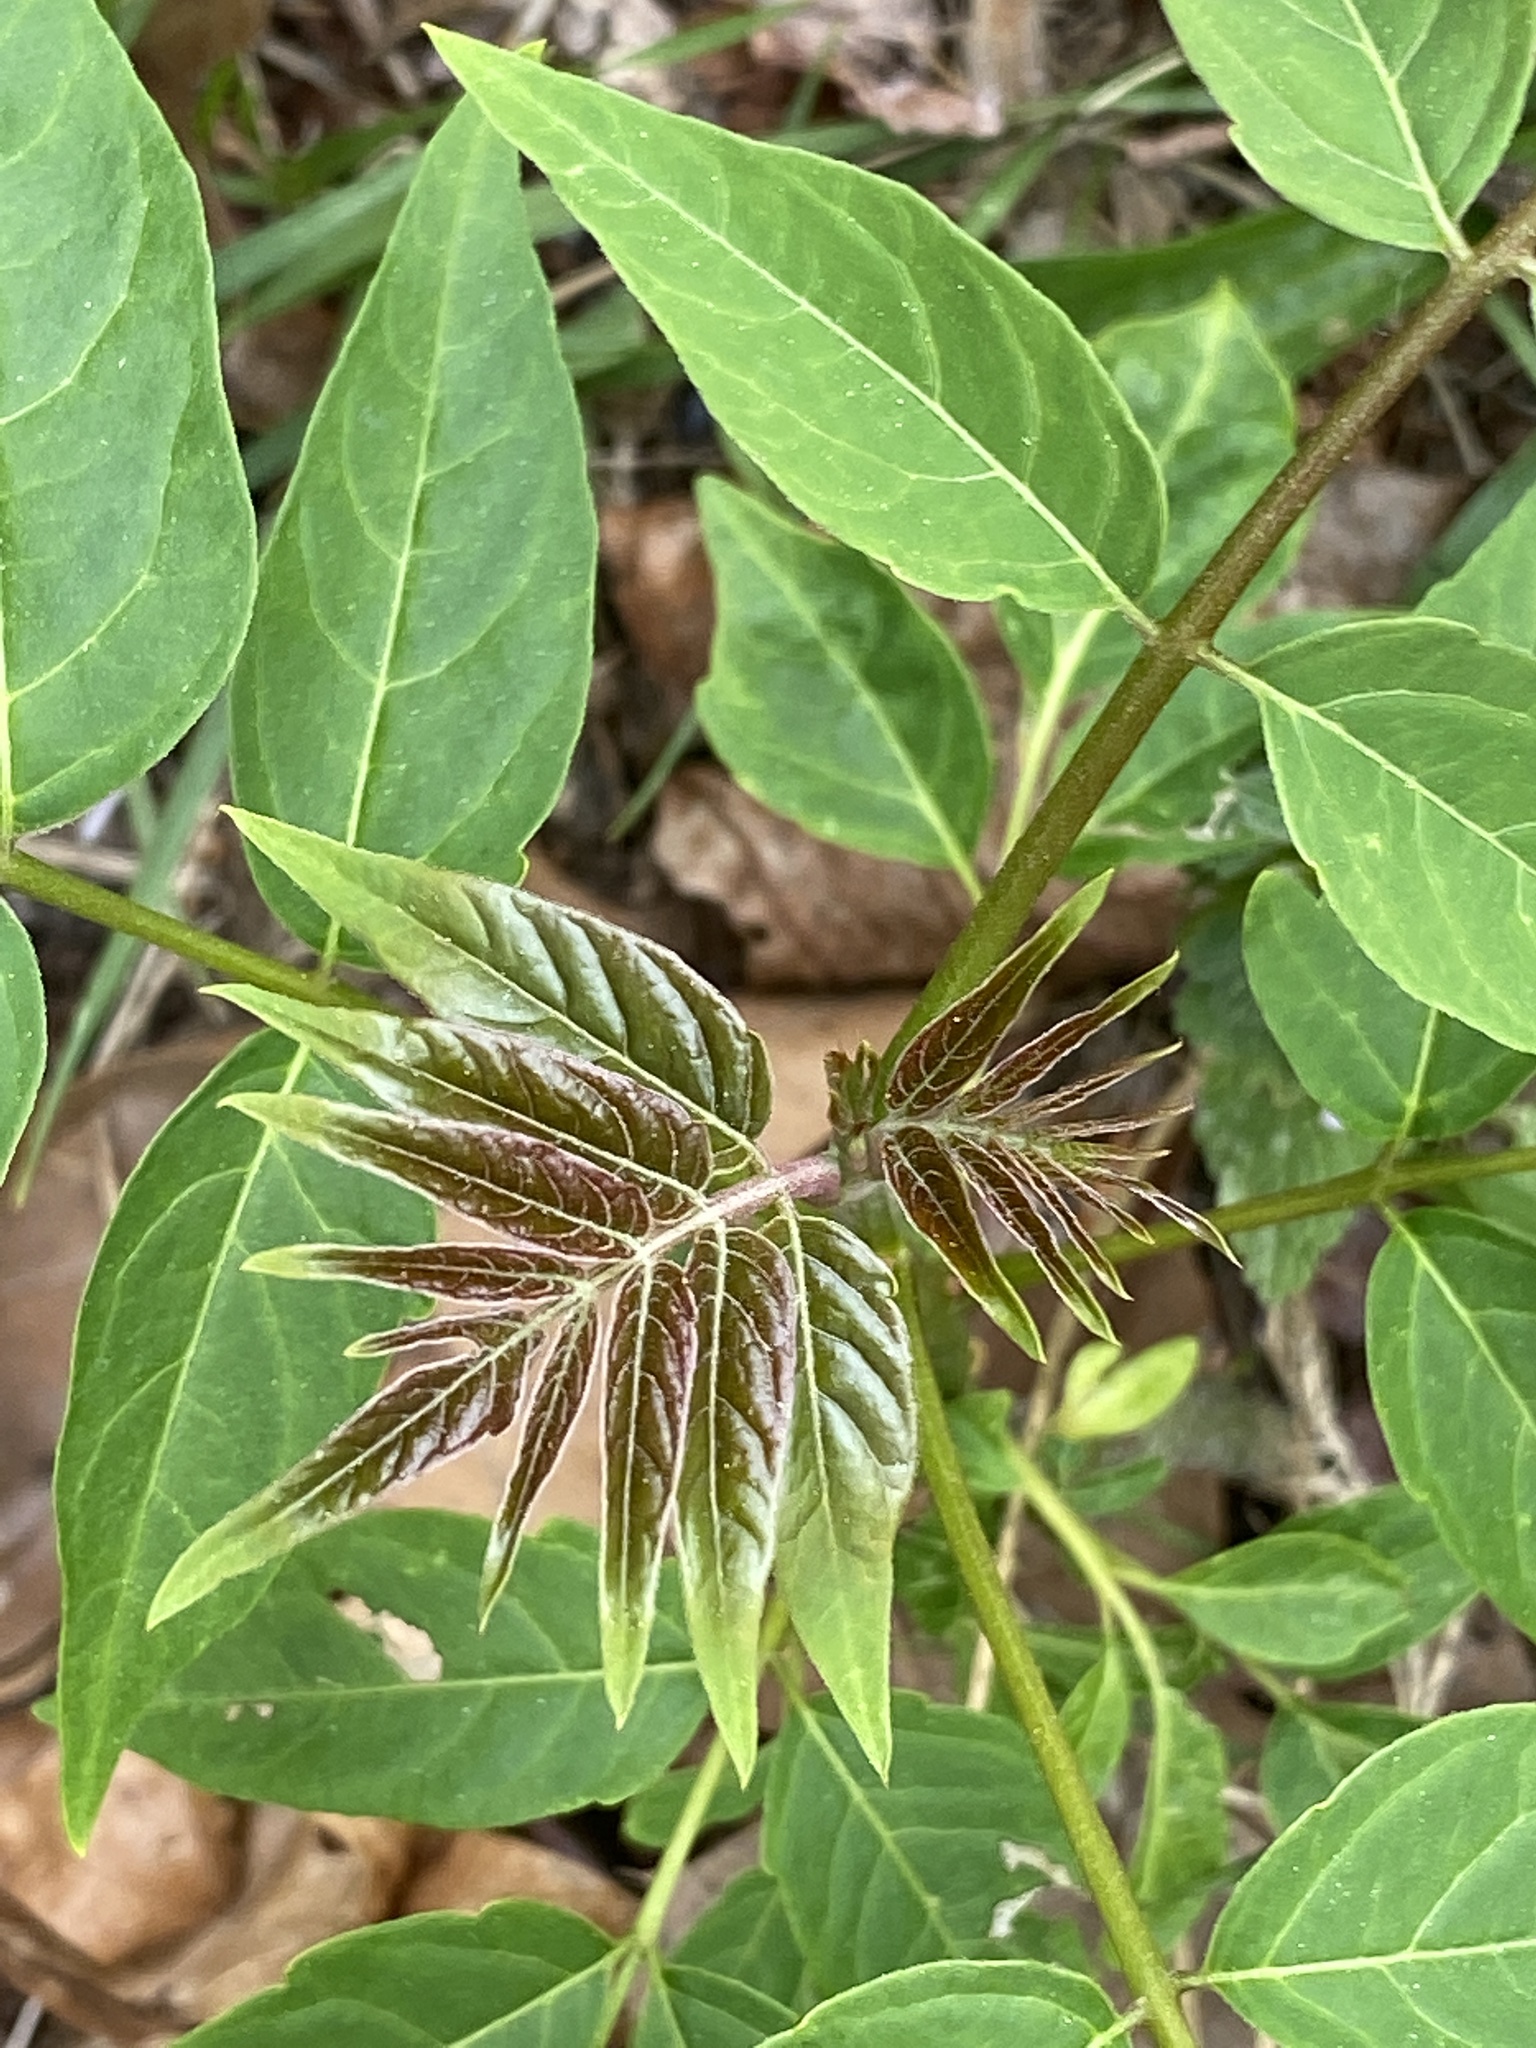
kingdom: Plantae
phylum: Tracheophyta
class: Magnoliopsida
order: Sapindales
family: Simaroubaceae
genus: Ailanthus
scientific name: Ailanthus altissima
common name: Tree-of-heaven
